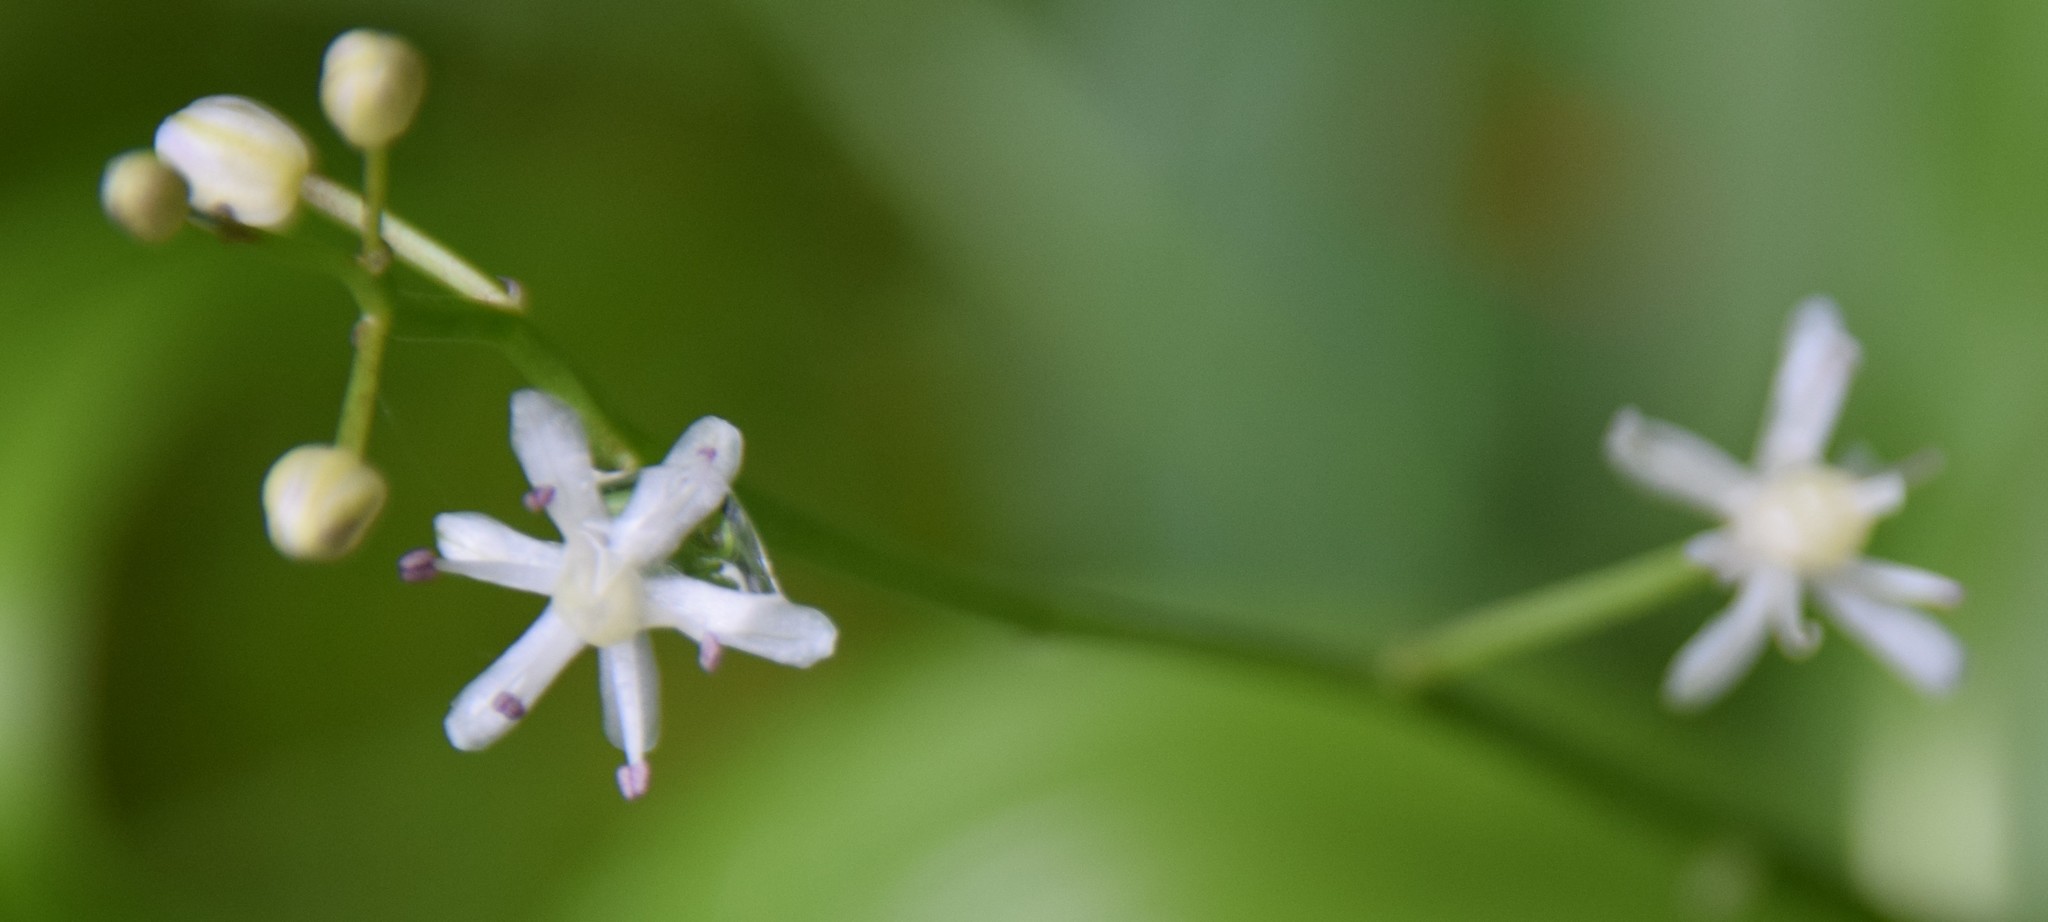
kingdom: Plantae
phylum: Tracheophyta
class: Liliopsida
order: Asparagales
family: Asparagaceae
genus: Maianthemum
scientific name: Maianthemum trifolium
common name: Swamp false solomon's seal
